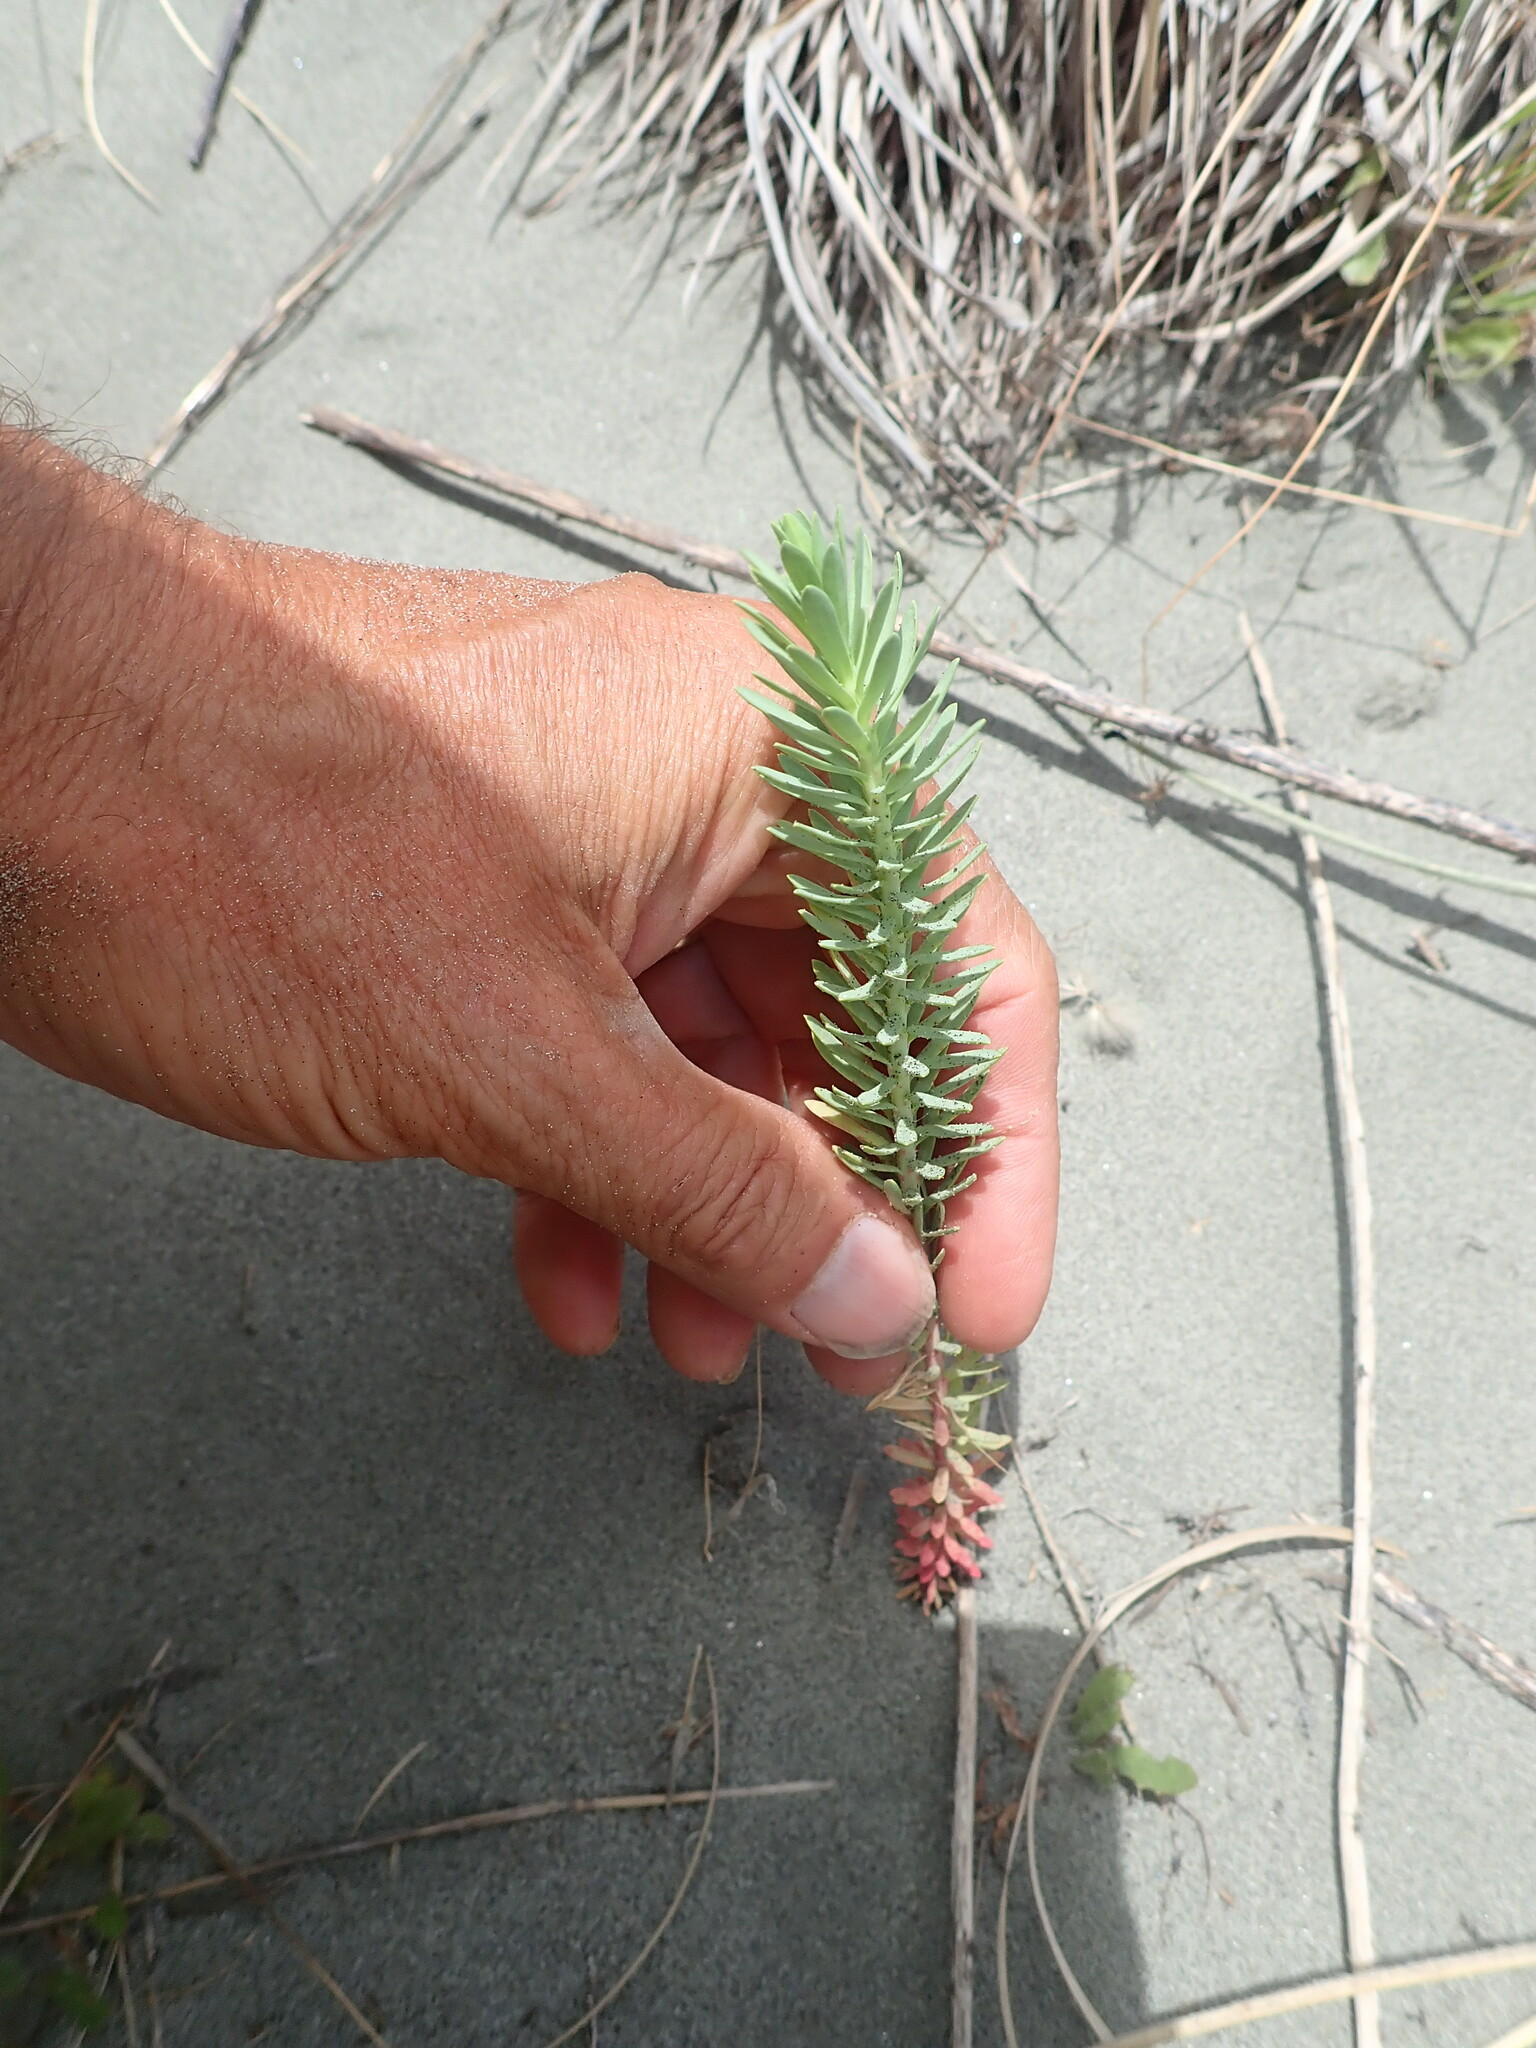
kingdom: Plantae
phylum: Tracheophyta
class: Magnoliopsida
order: Malpighiales
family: Euphorbiaceae
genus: Euphorbia
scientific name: Euphorbia paralias
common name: Sea spurge
